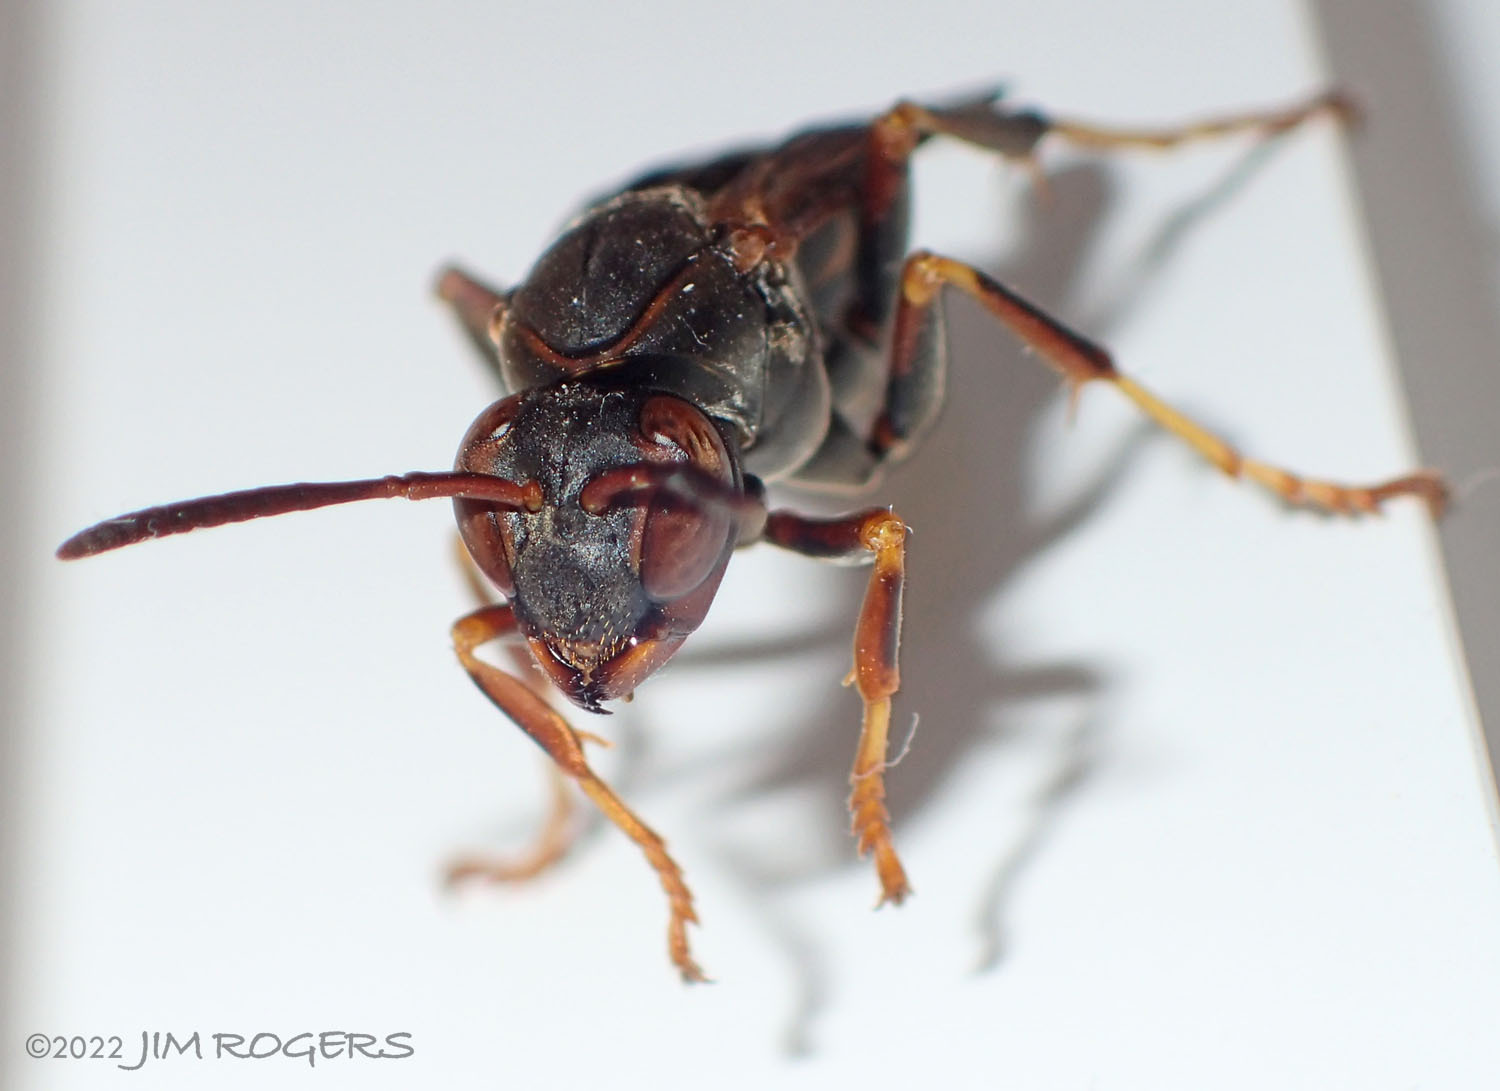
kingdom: Animalia
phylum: Arthropoda
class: Insecta
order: Hymenoptera
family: Eumenidae
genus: Polistes
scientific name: Polistes fuscatus
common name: Dark paper wasp
